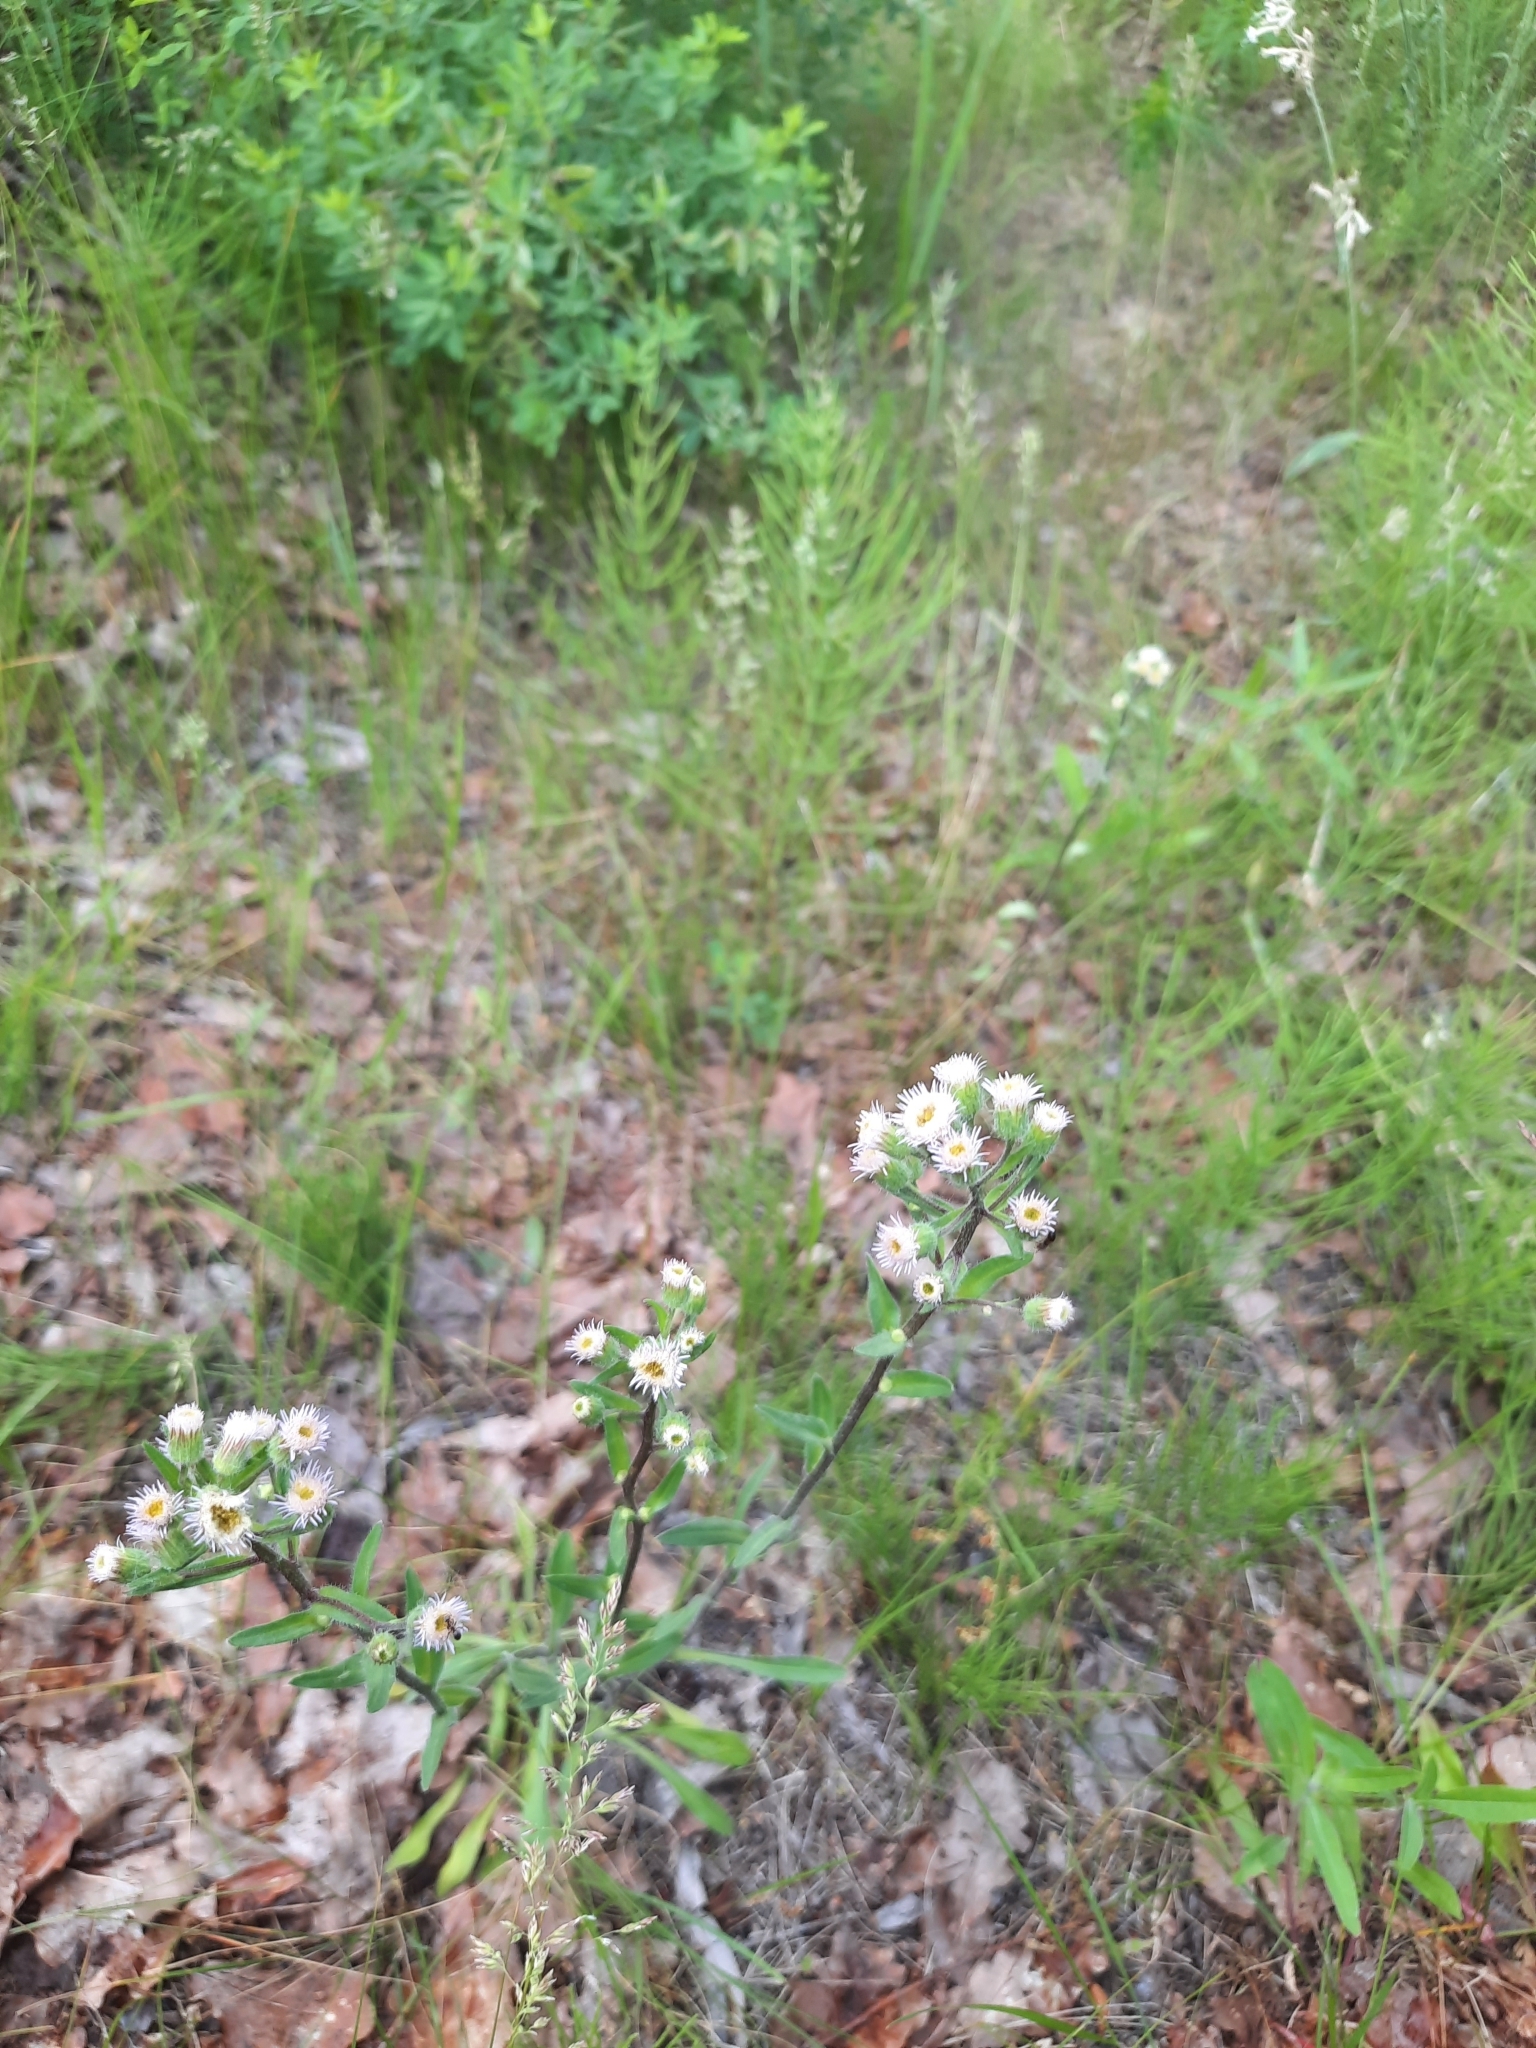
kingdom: Plantae
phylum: Tracheophyta
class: Magnoliopsida
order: Asterales
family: Asteraceae
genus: Erigeron
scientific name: Erigeron acris
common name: Blue fleabane
